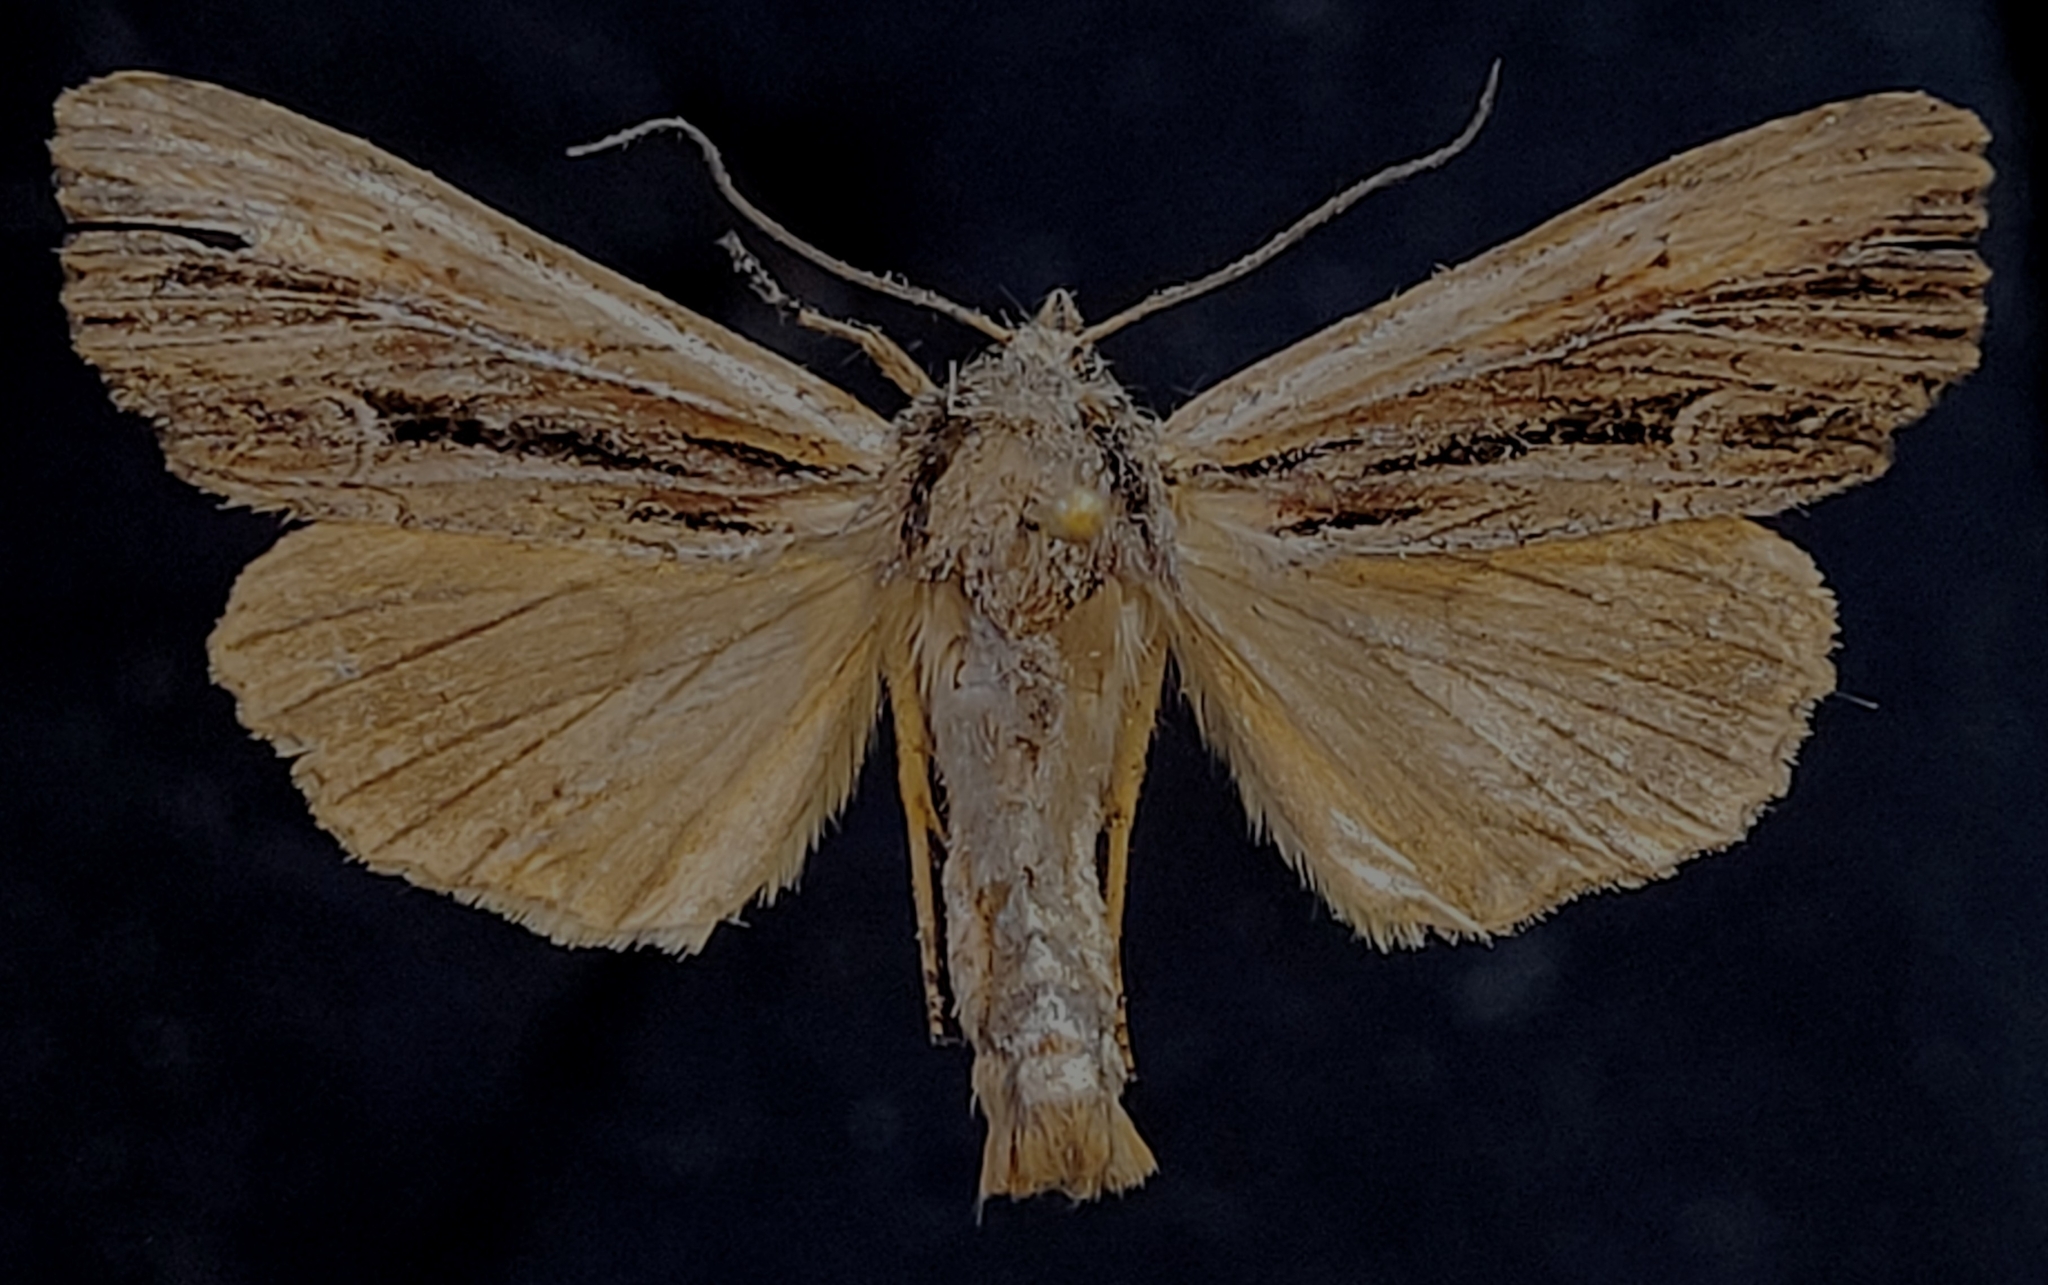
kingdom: Animalia
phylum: Arthropoda
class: Insecta
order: Lepidoptera
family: Noctuidae
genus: Apamea
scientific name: Apamea verbascoides
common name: Mullein apamea moth
